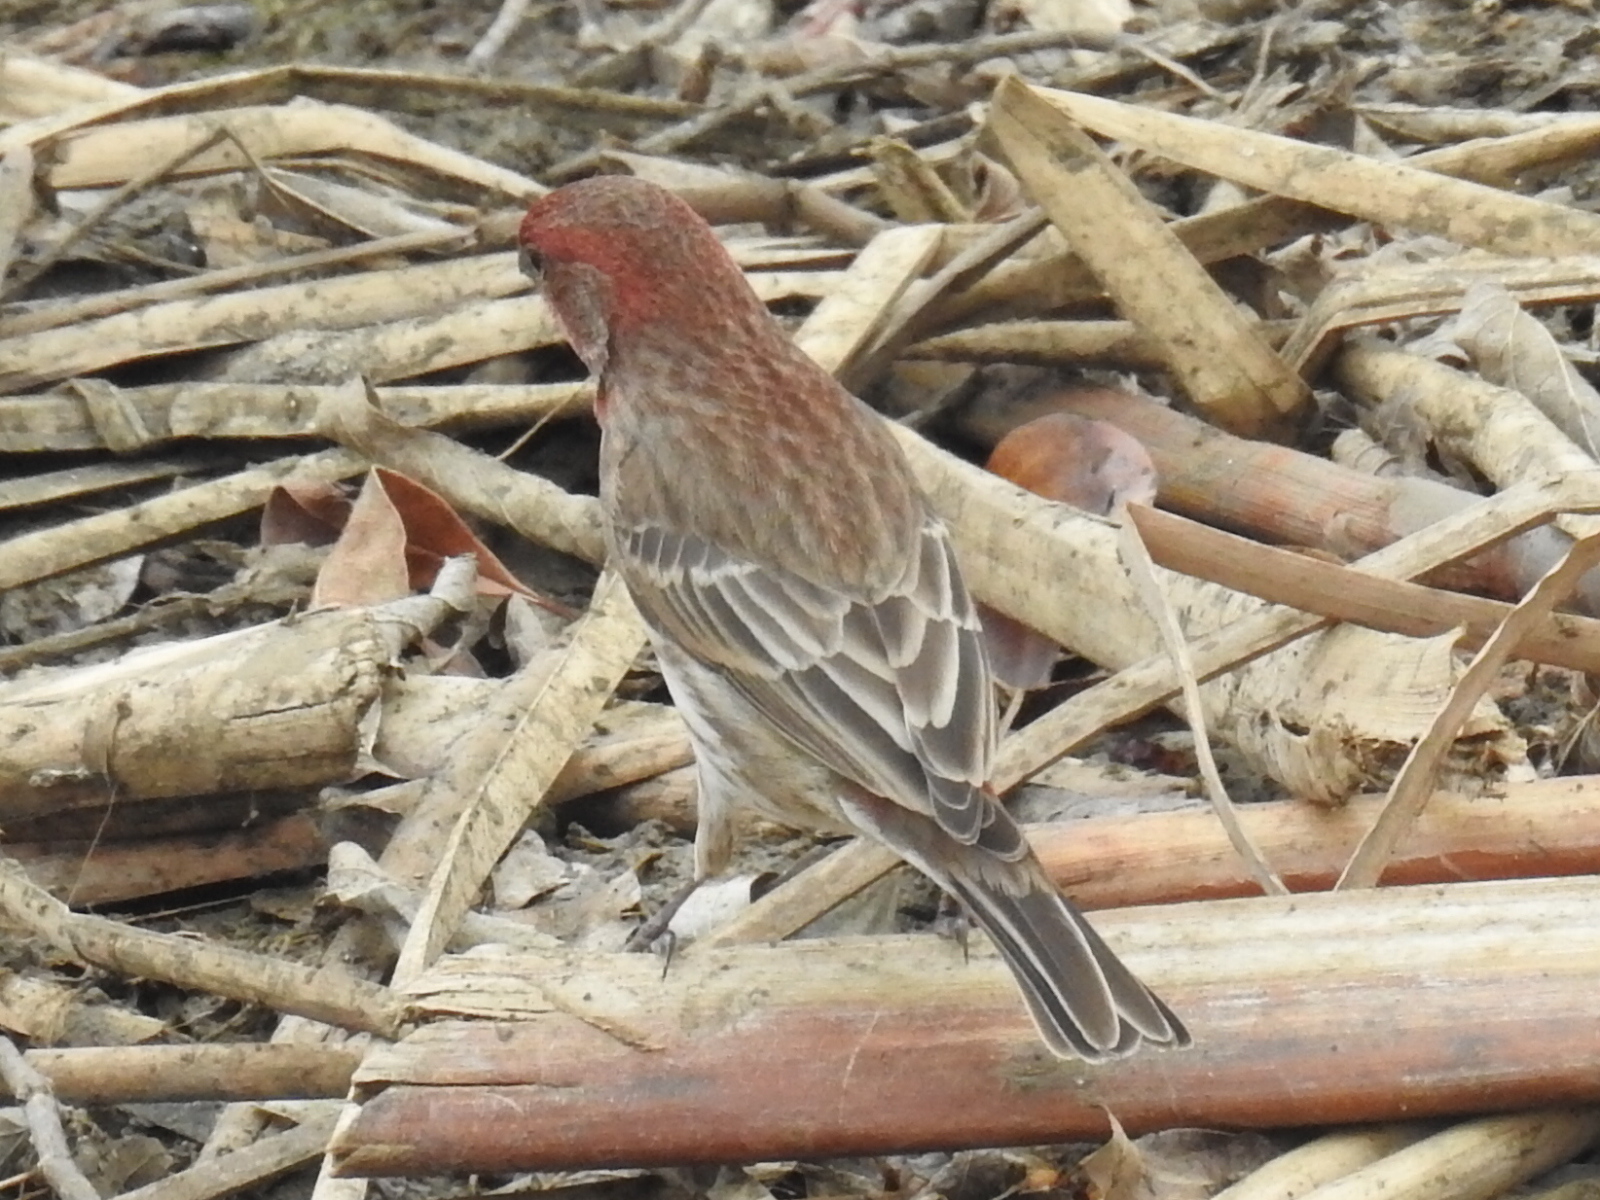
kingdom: Animalia
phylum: Chordata
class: Aves
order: Passeriformes
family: Fringillidae
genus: Haemorhous
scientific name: Haemorhous mexicanus
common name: House finch
